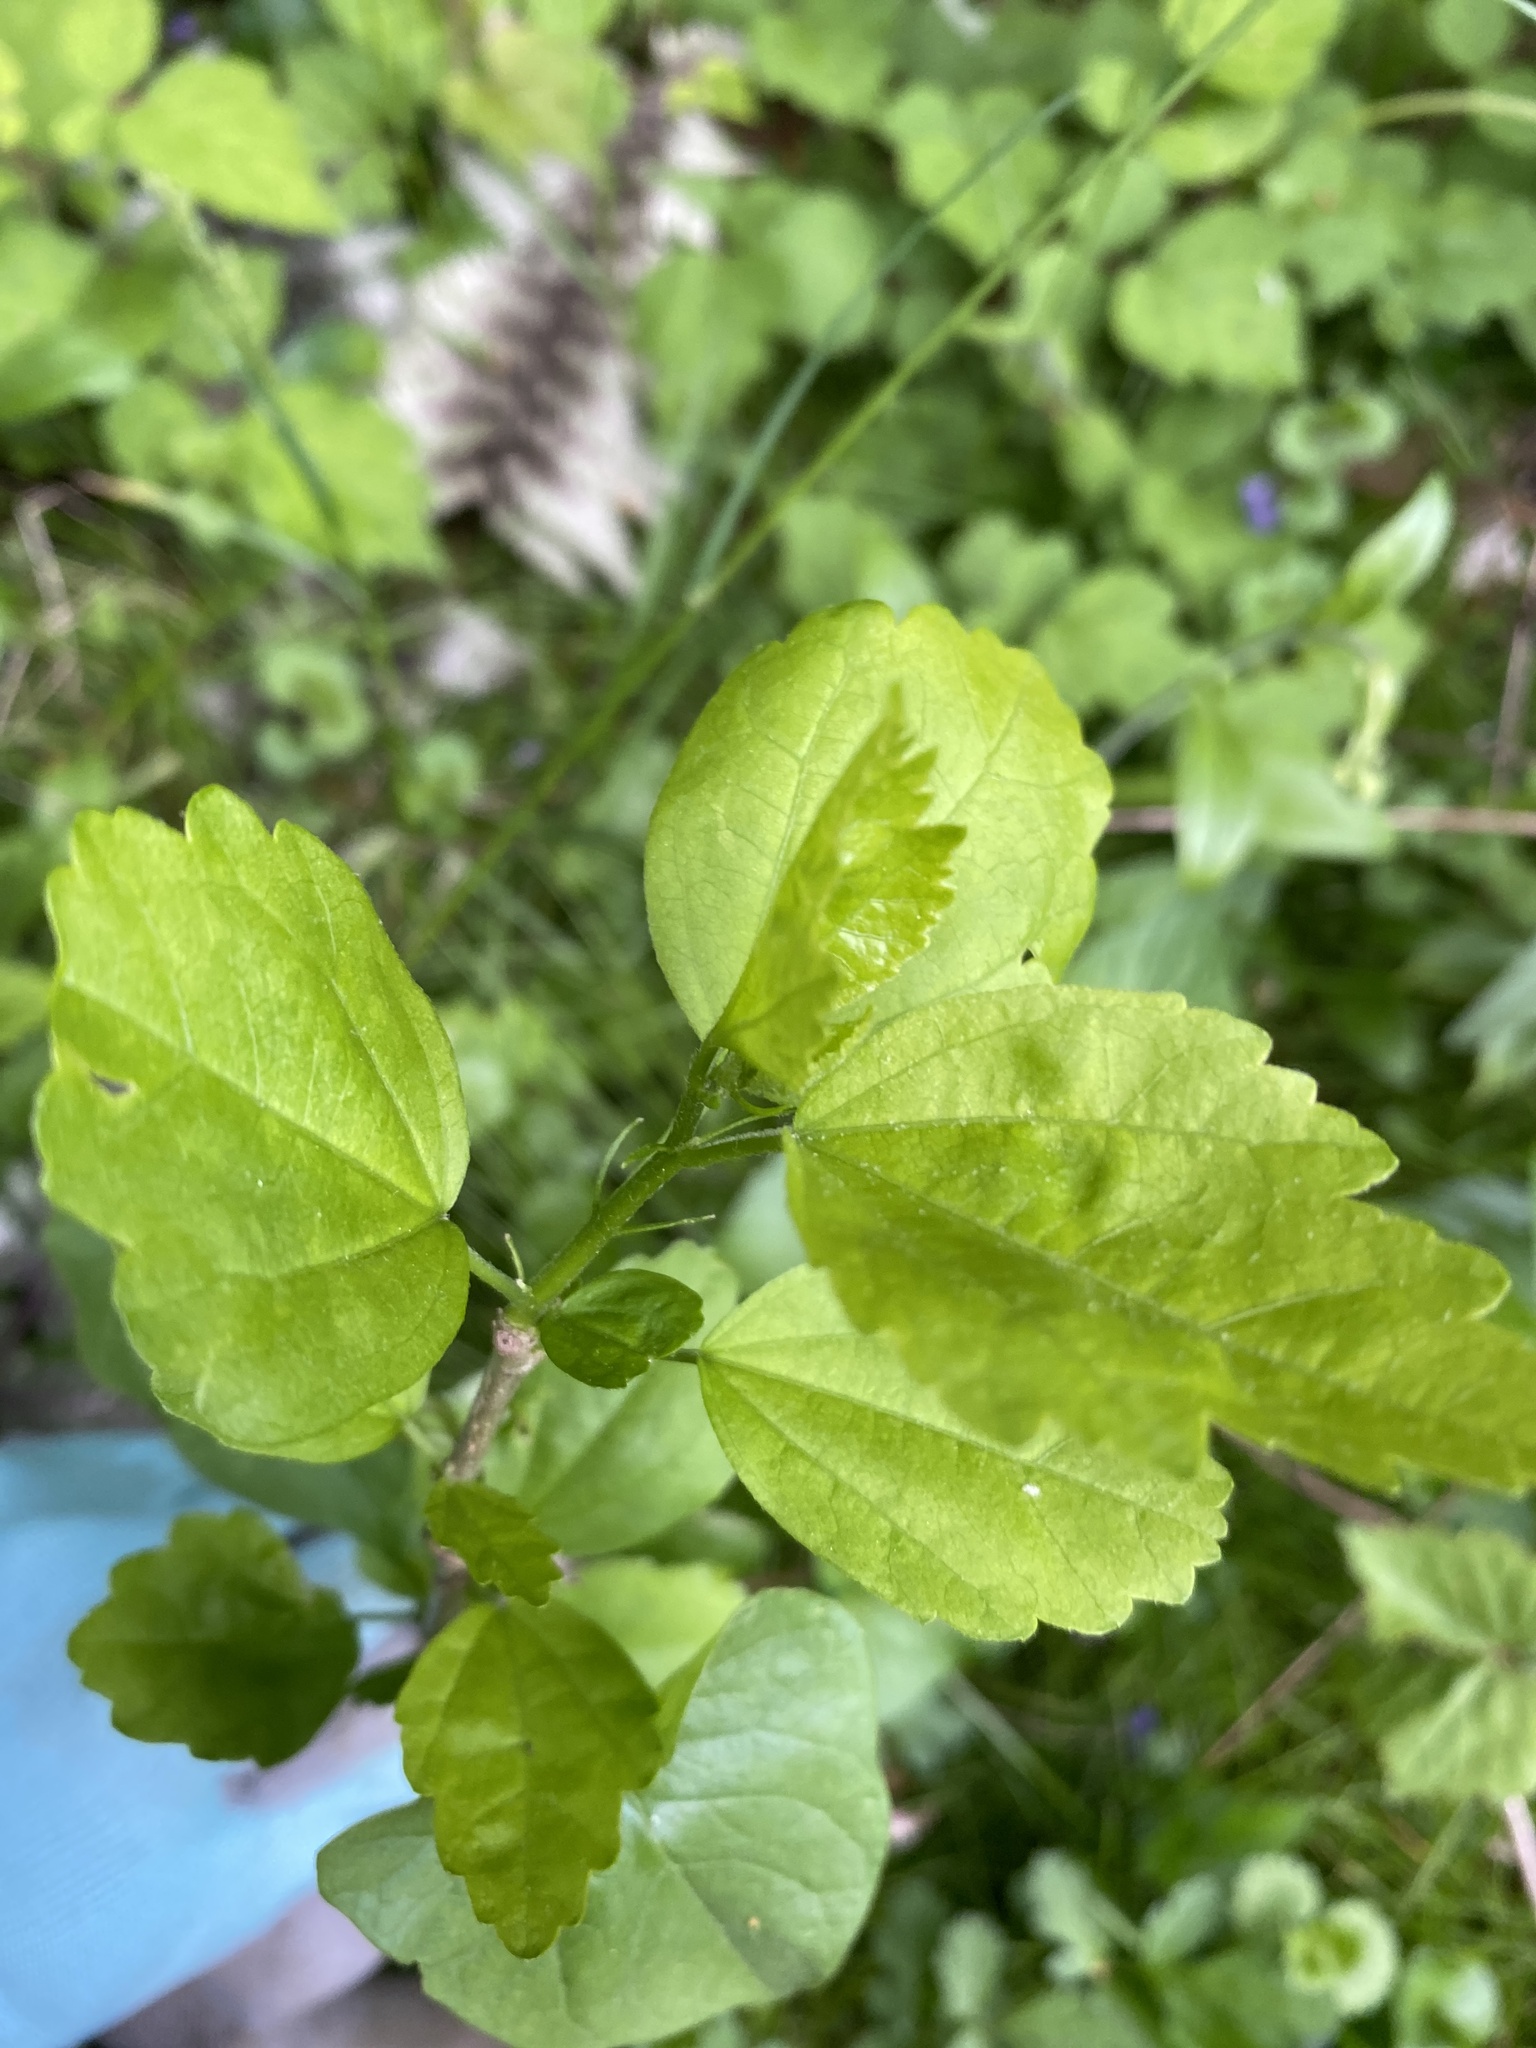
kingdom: Plantae
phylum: Tracheophyta
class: Magnoliopsida
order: Malvales
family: Malvaceae
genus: Hibiscus
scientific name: Hibiscus syriacus
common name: Syrian ketmia
